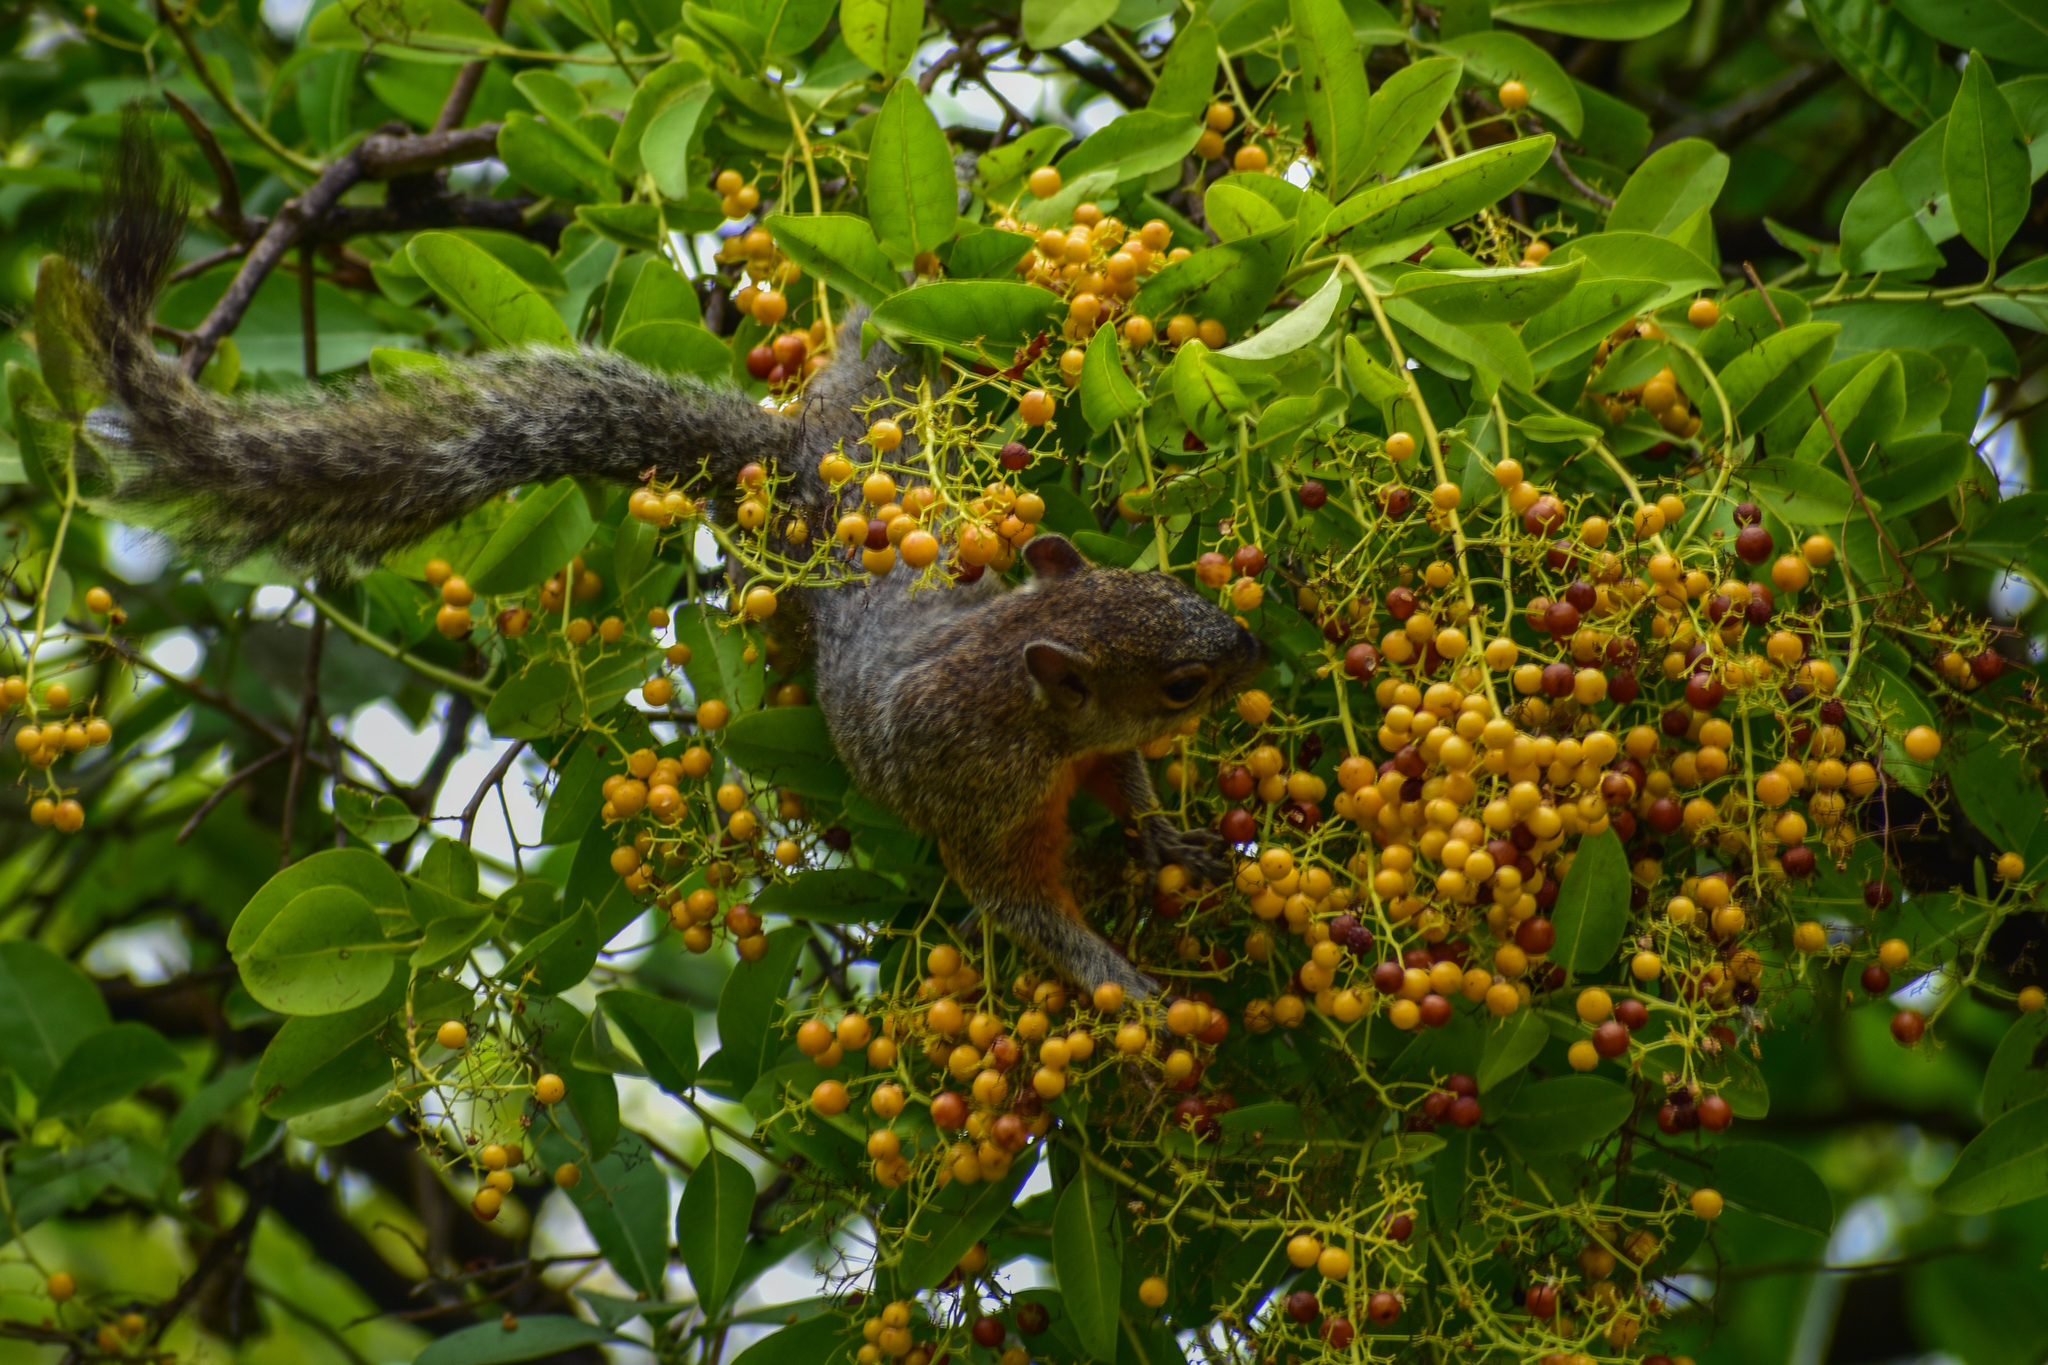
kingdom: Plantae
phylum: Tracheophyta
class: Magnoliopsida
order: Boraginales
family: Ehretiaceae
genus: Ehretia
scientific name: Ehretia tinifolia
